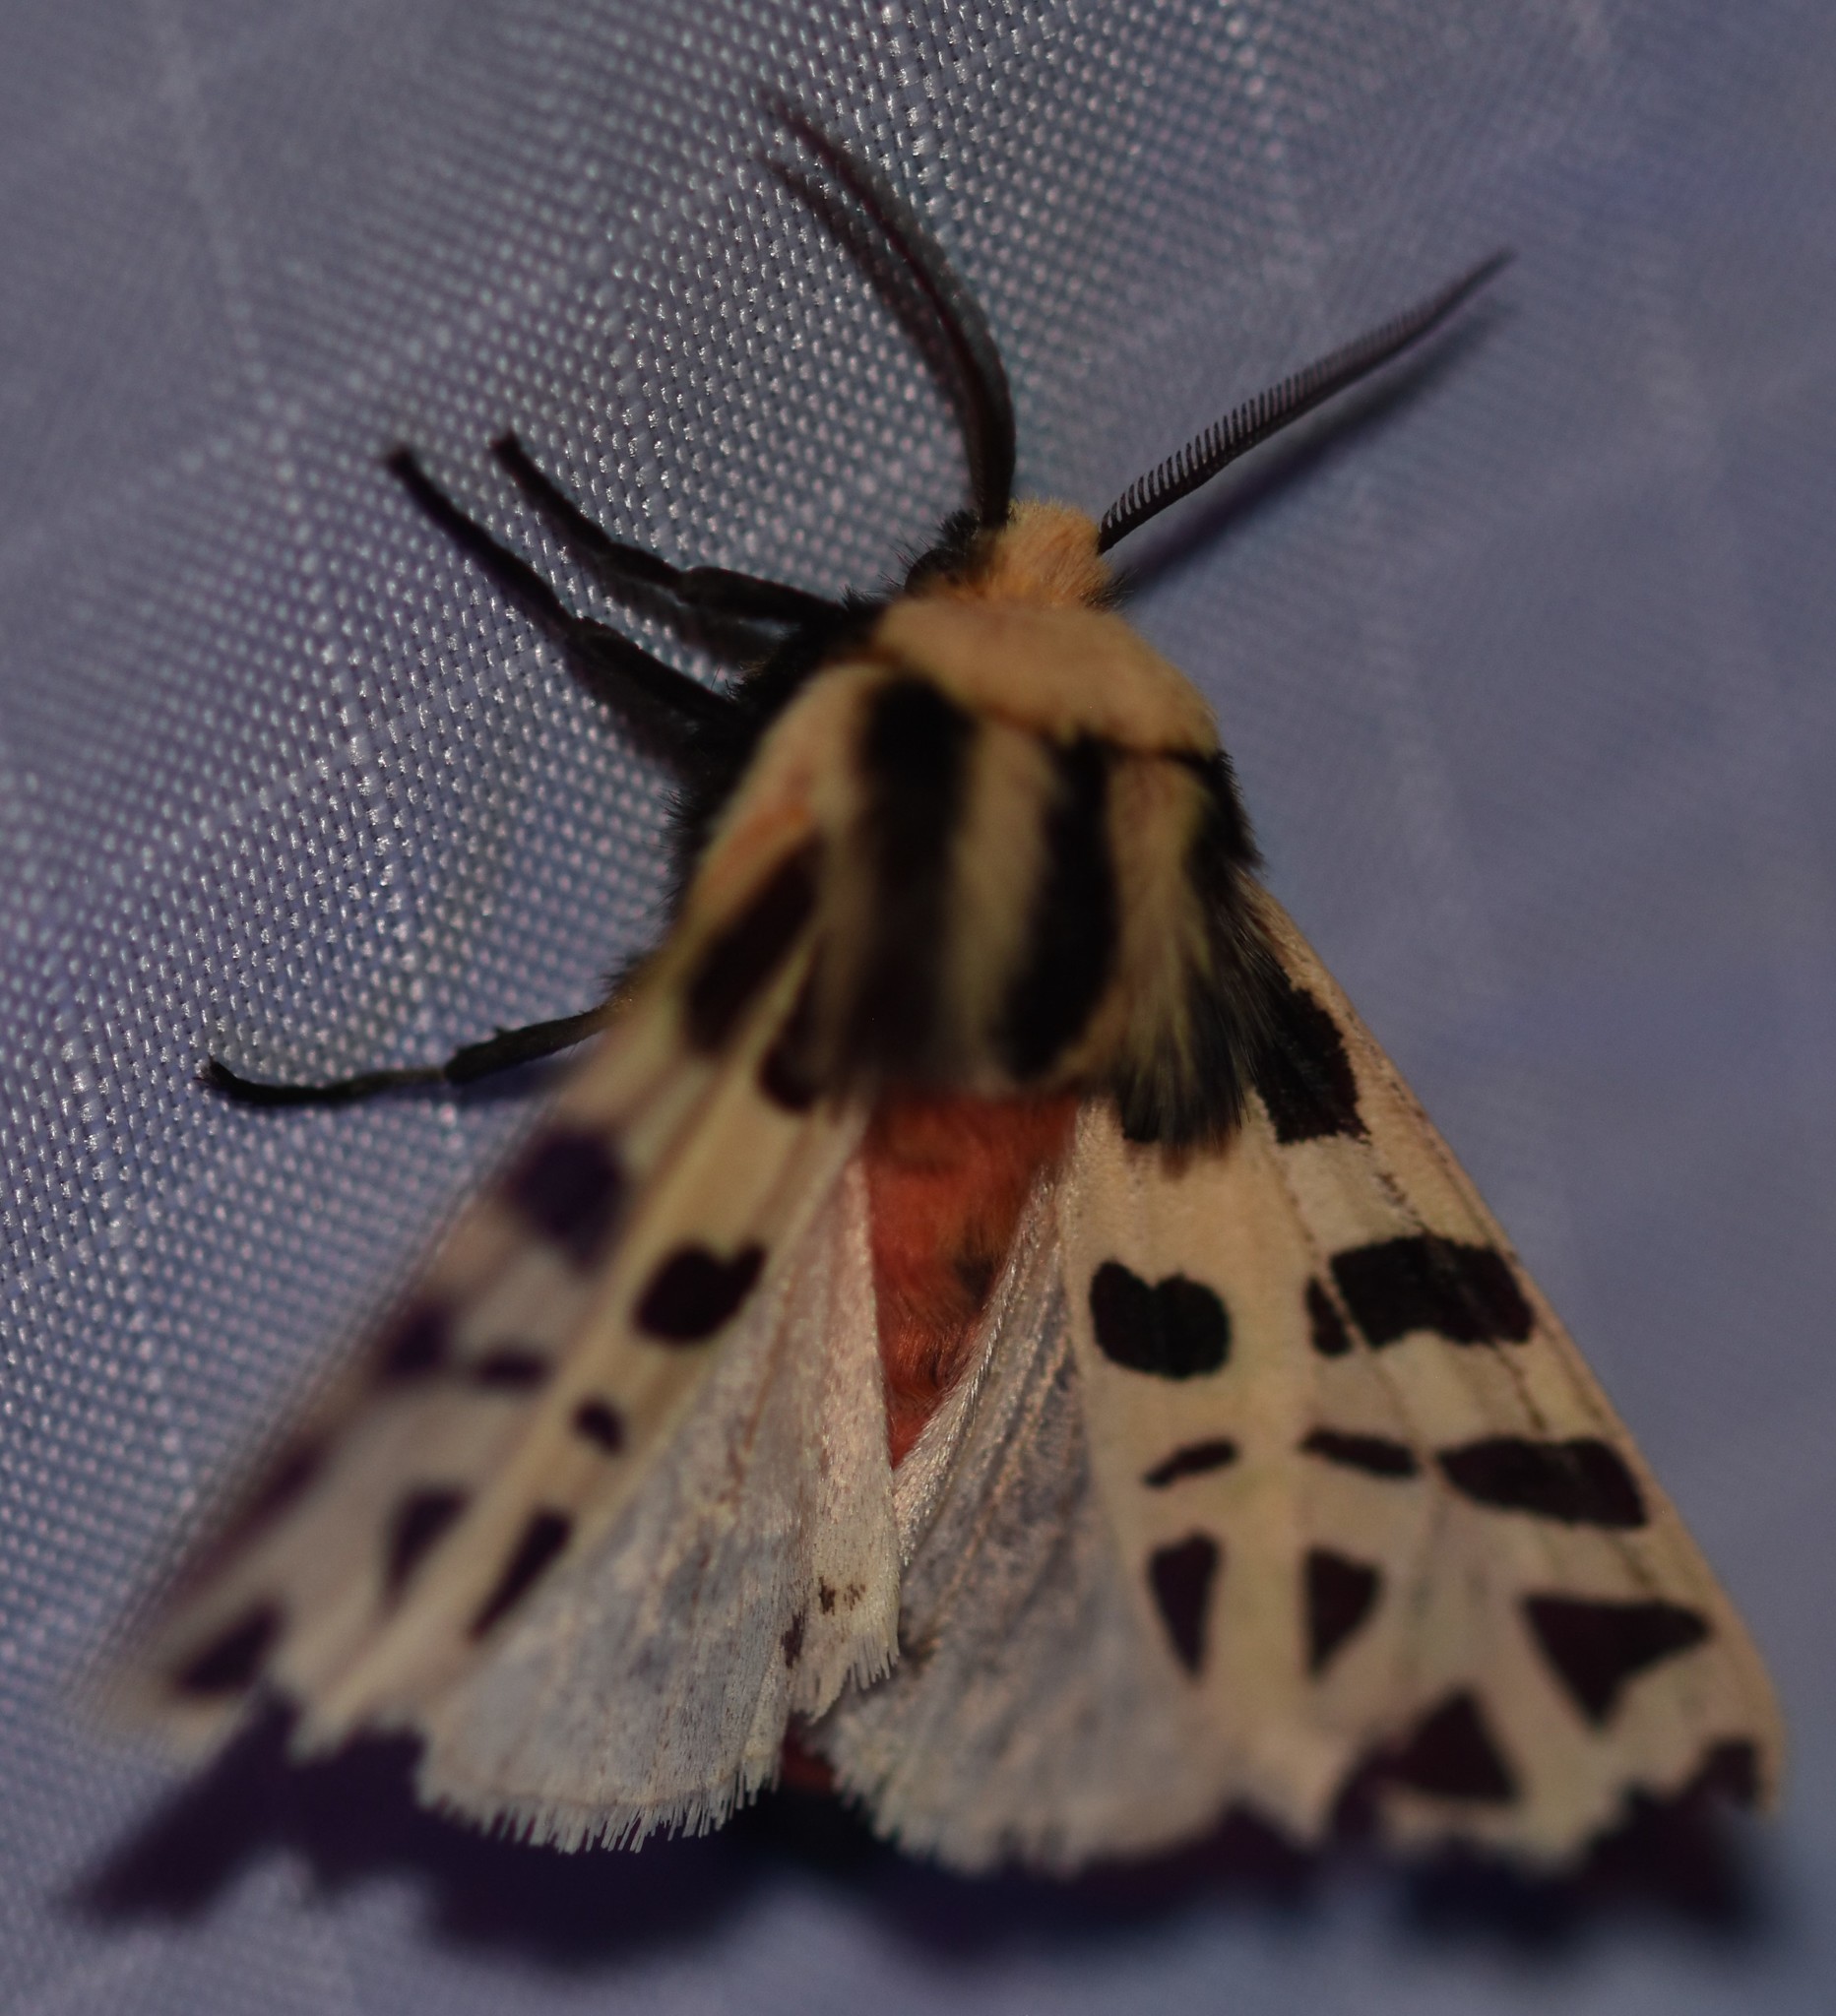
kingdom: Animalia
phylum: Arthropoda
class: Insecta
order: Lepidoptera
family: Erebidae
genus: Apantesis
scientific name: Apantesis
